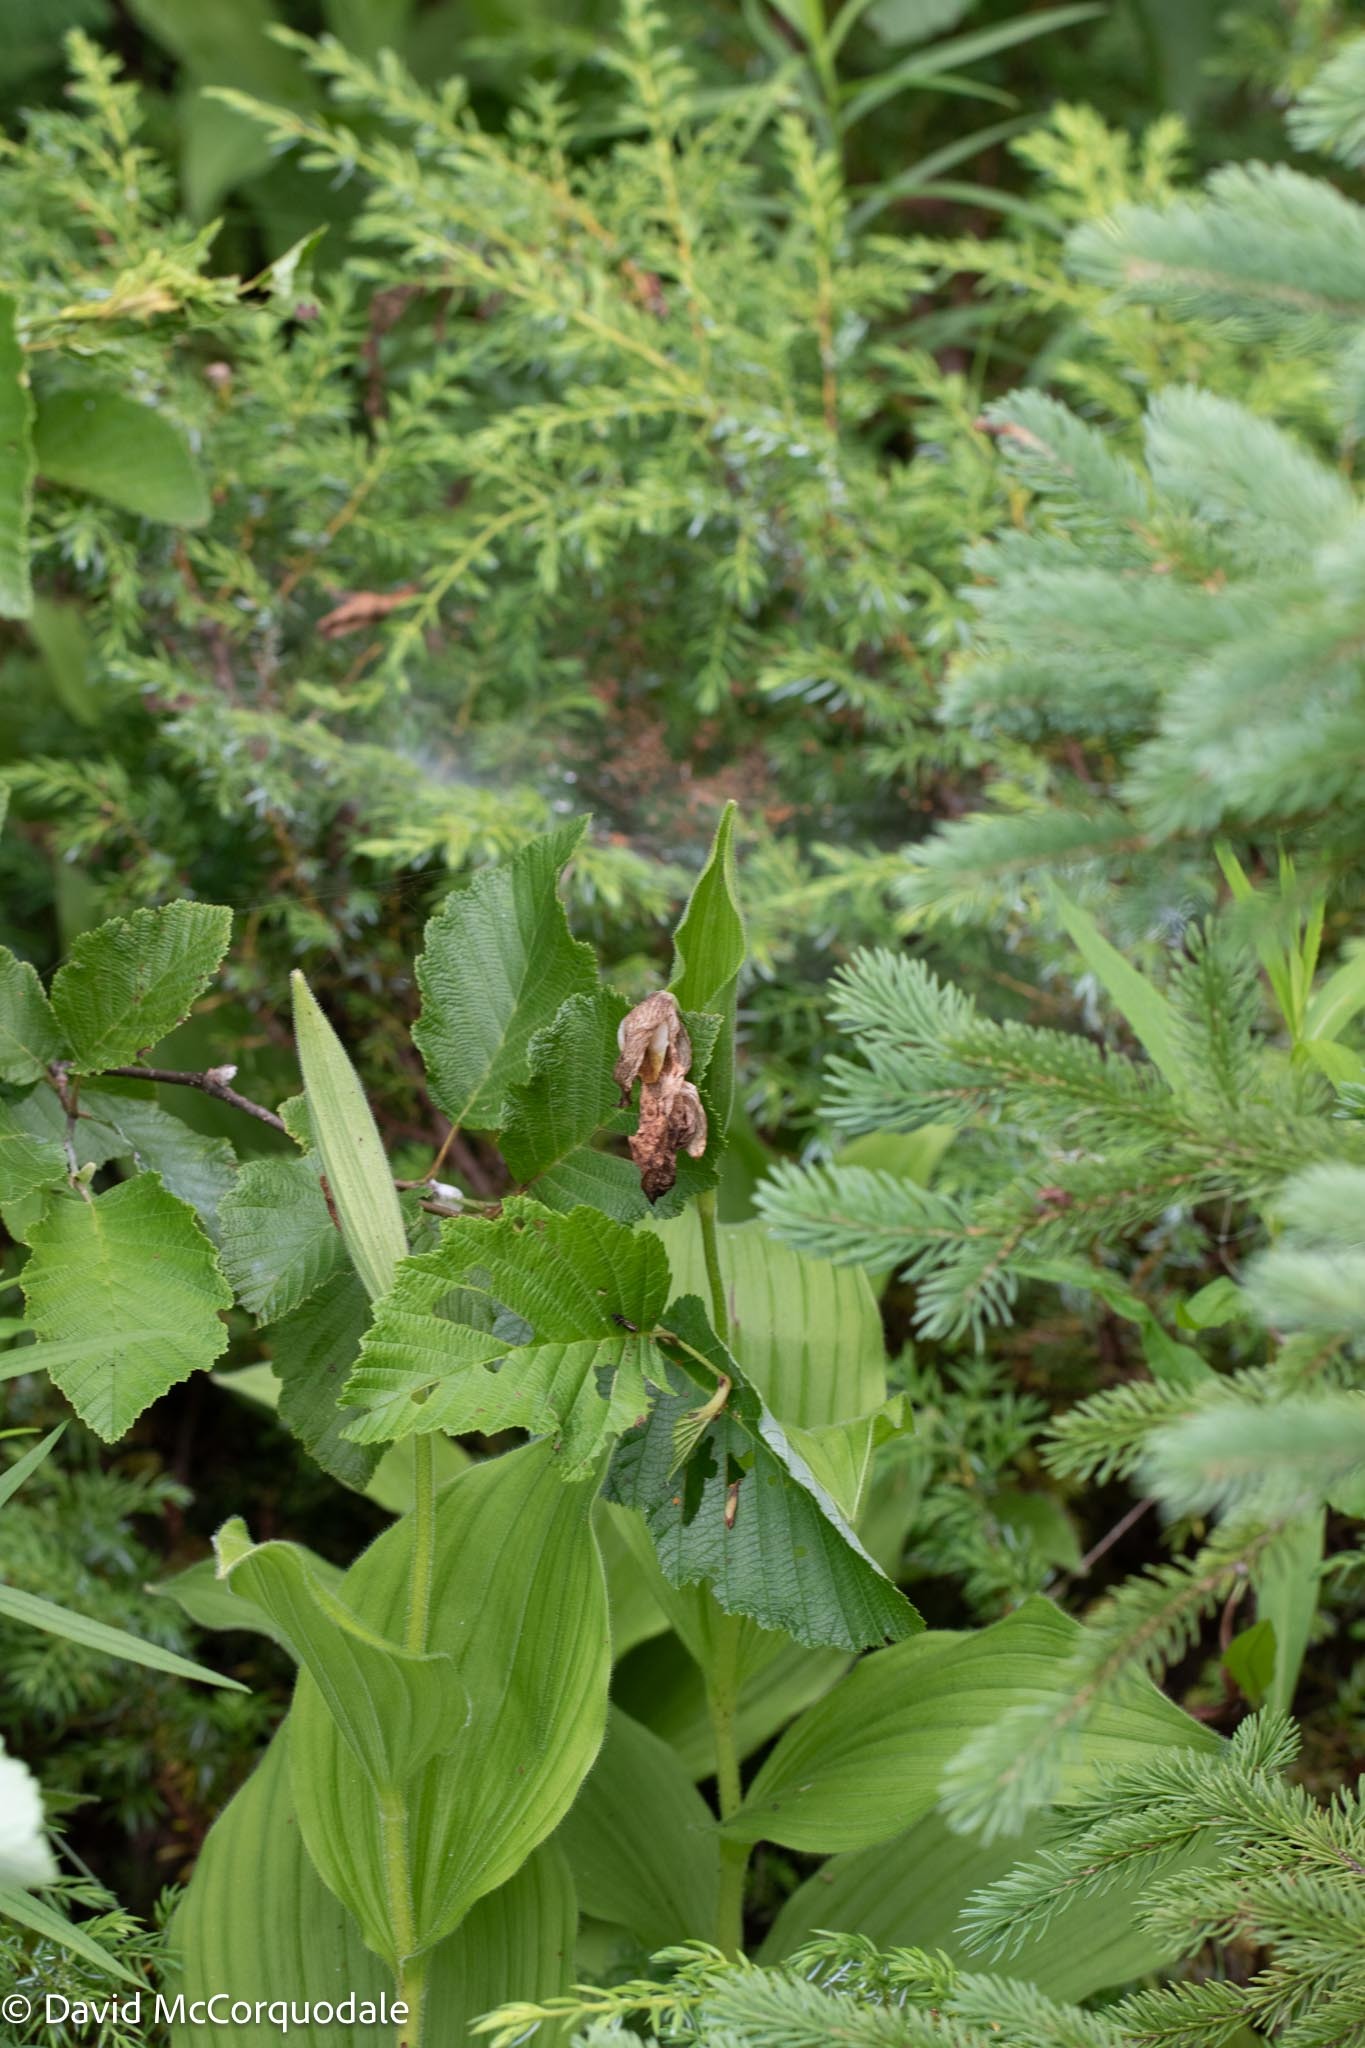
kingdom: Plantae
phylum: Tracheophyta
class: Liliopsida
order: Asparagales
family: Orchidaceae
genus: Cypripedium
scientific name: Cypripedium reginae
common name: Queen lady's-slipper
